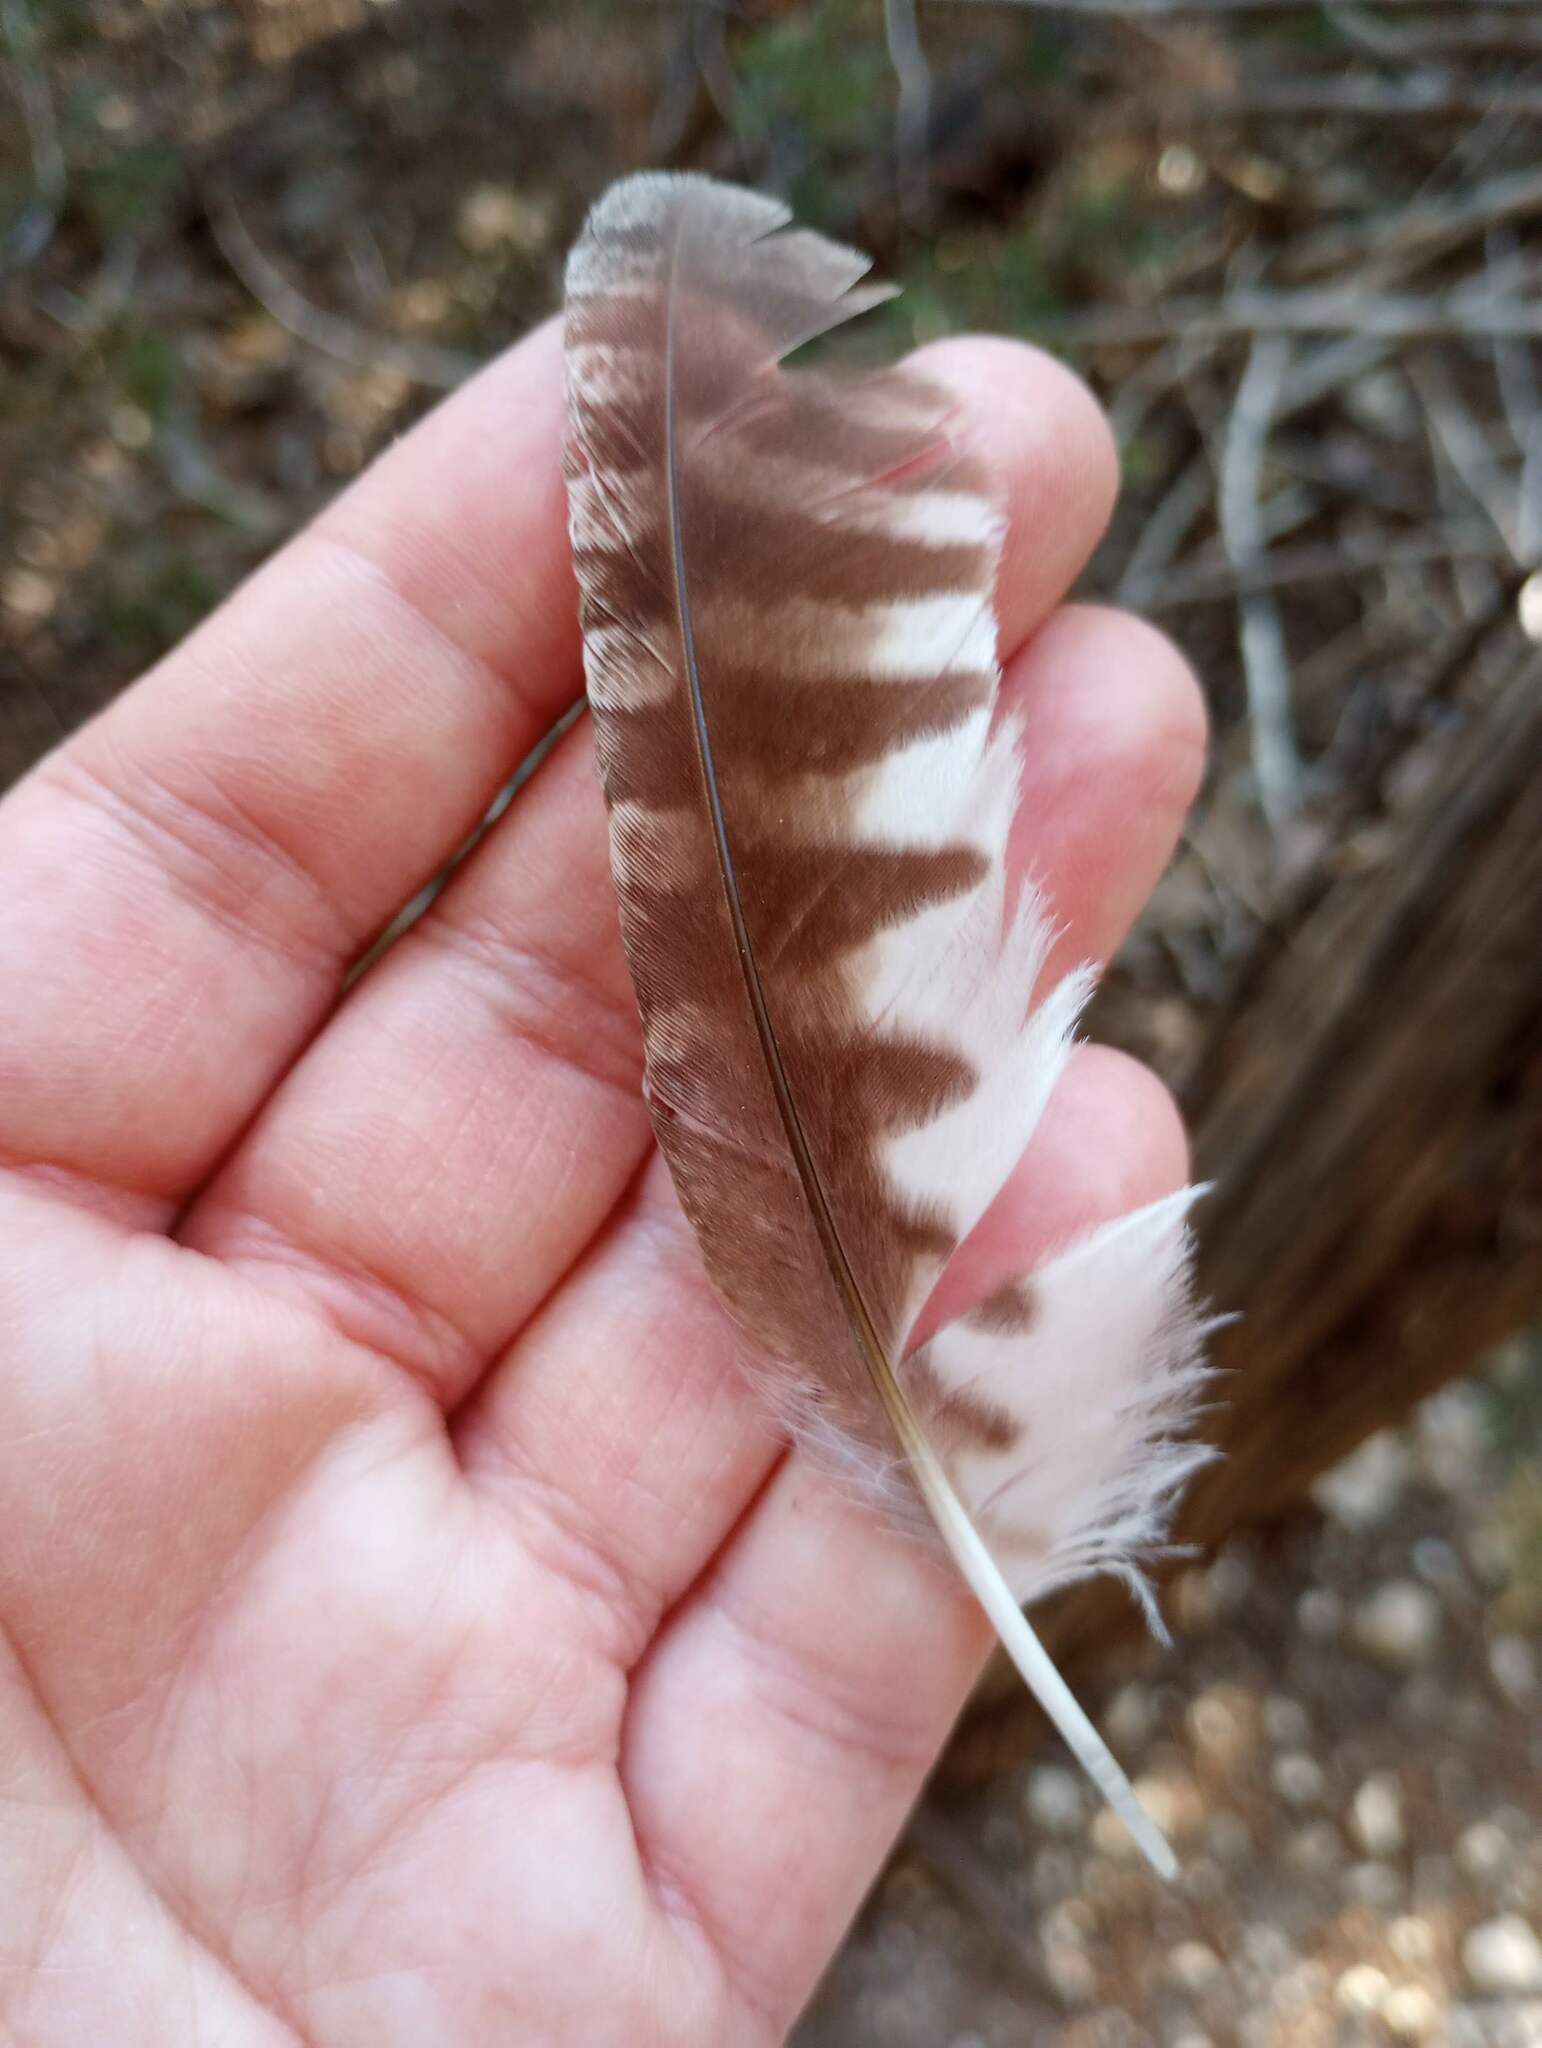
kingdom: Animalia
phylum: Chordata
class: Aves
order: Strigiformes
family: Strigidae
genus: Megascops
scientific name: Megascops asio
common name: Eastern screech-owl
